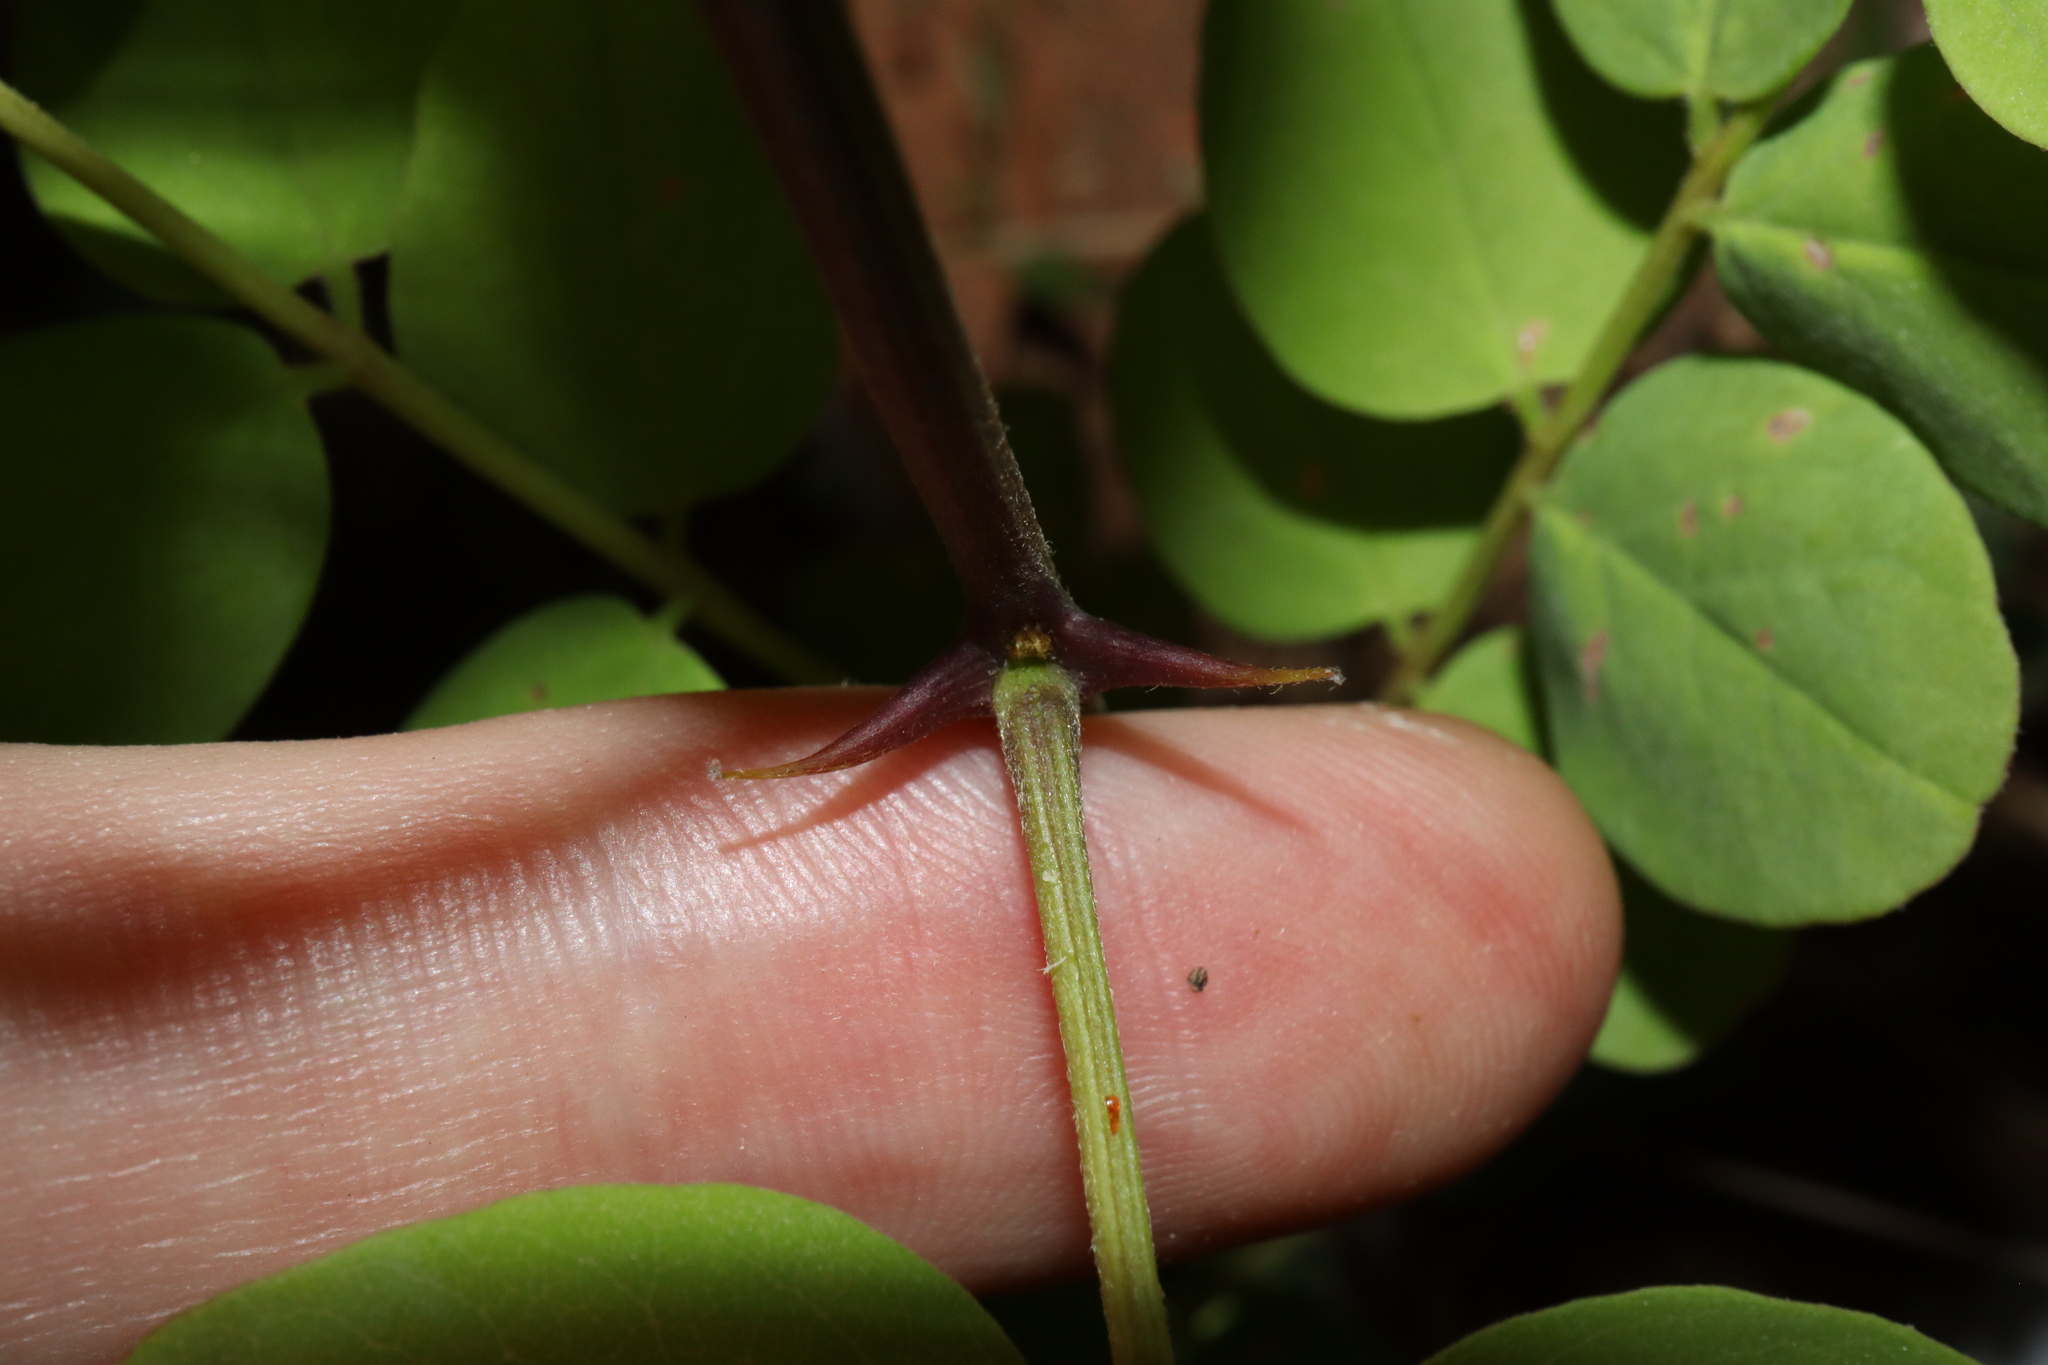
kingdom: Plantae
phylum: Tracheophyta
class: Magnoliopsida
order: Fabales
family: Fabaceae
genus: Robinia
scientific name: Robinia pseudoacacia
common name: Black locust
